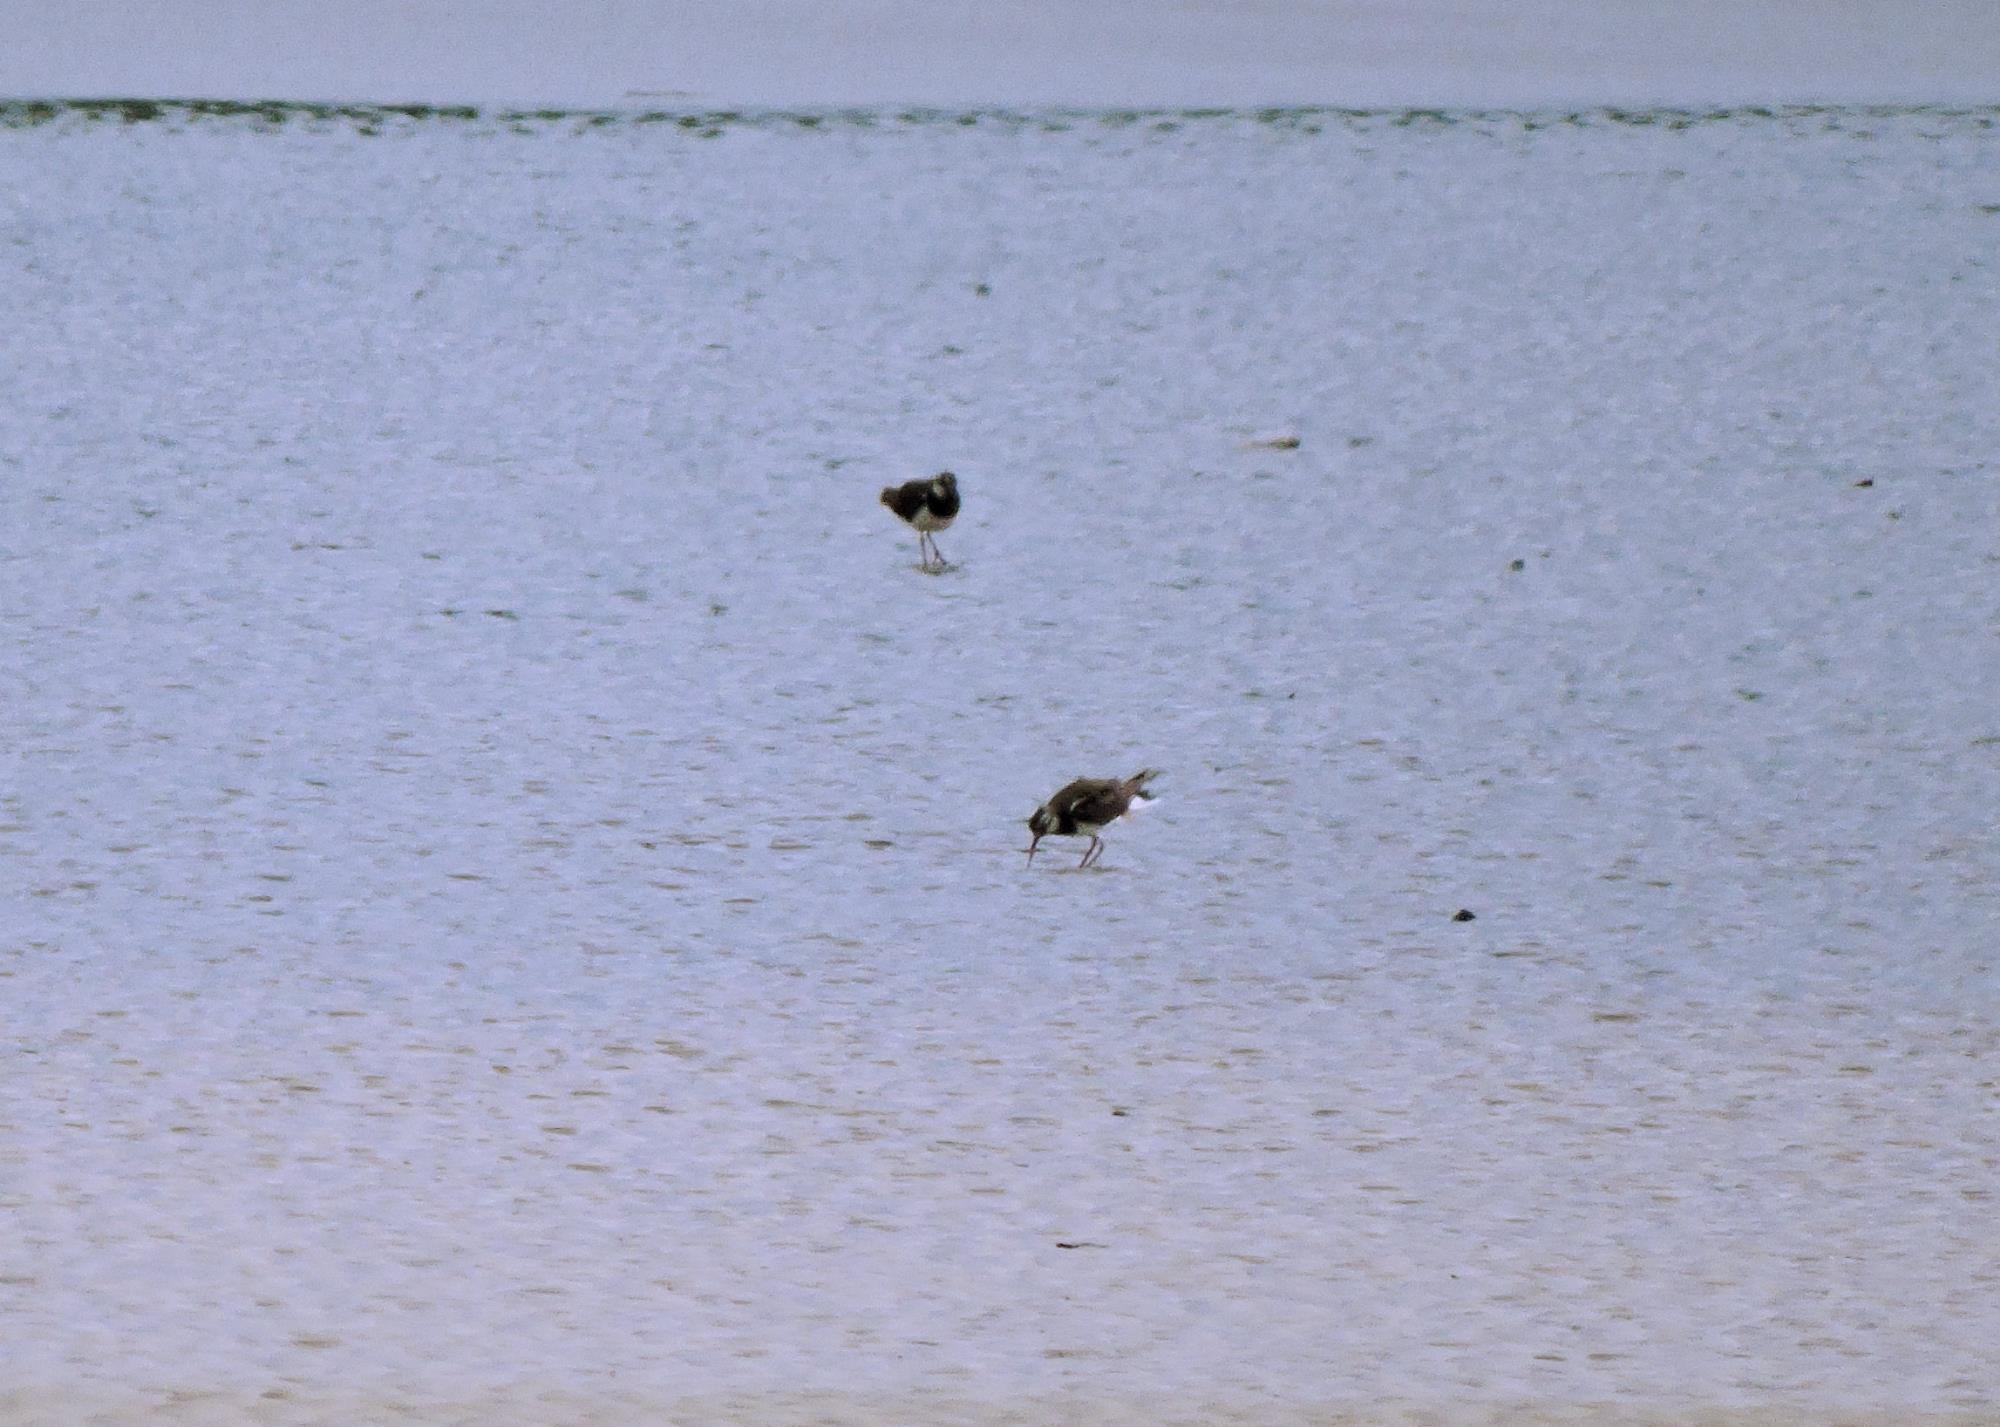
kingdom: Animalia
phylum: Chordata
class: Aves
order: Charadriiformes
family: Charadriidae
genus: Vanellus
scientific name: Vanellus vanellus
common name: Northern lapwing
